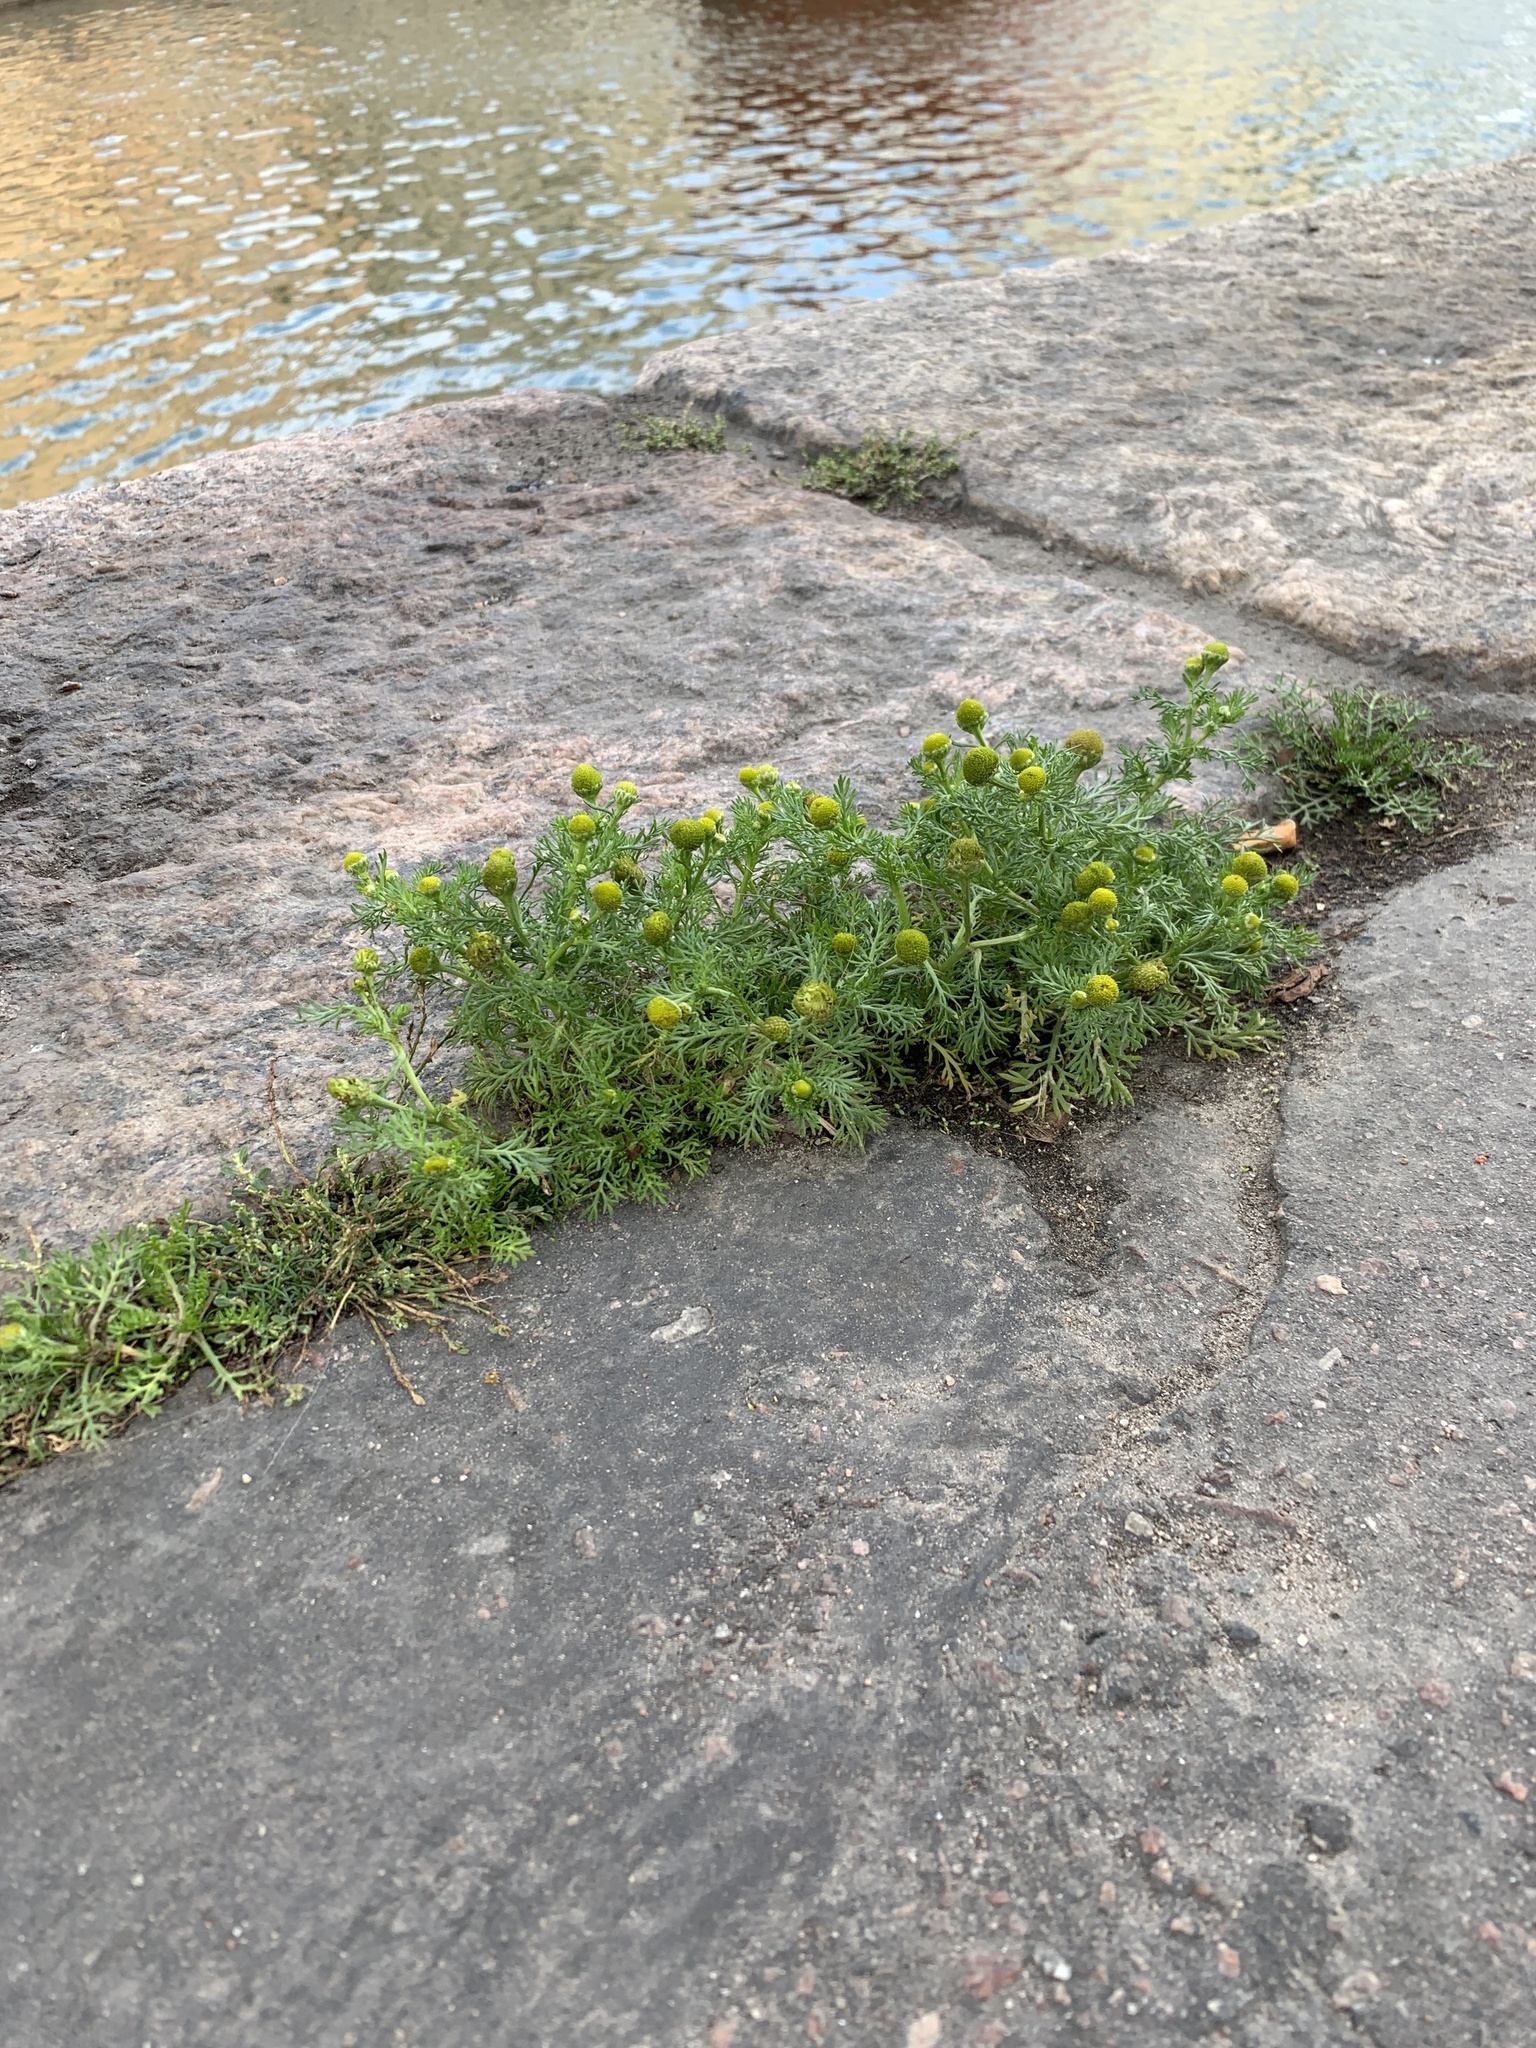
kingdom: Plantae
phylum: Tracheophyta
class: Magnoliopsida
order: Asterales
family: Asteraceae
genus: Matricaria
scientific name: Matricaria discoidea
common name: Disc mayweed
